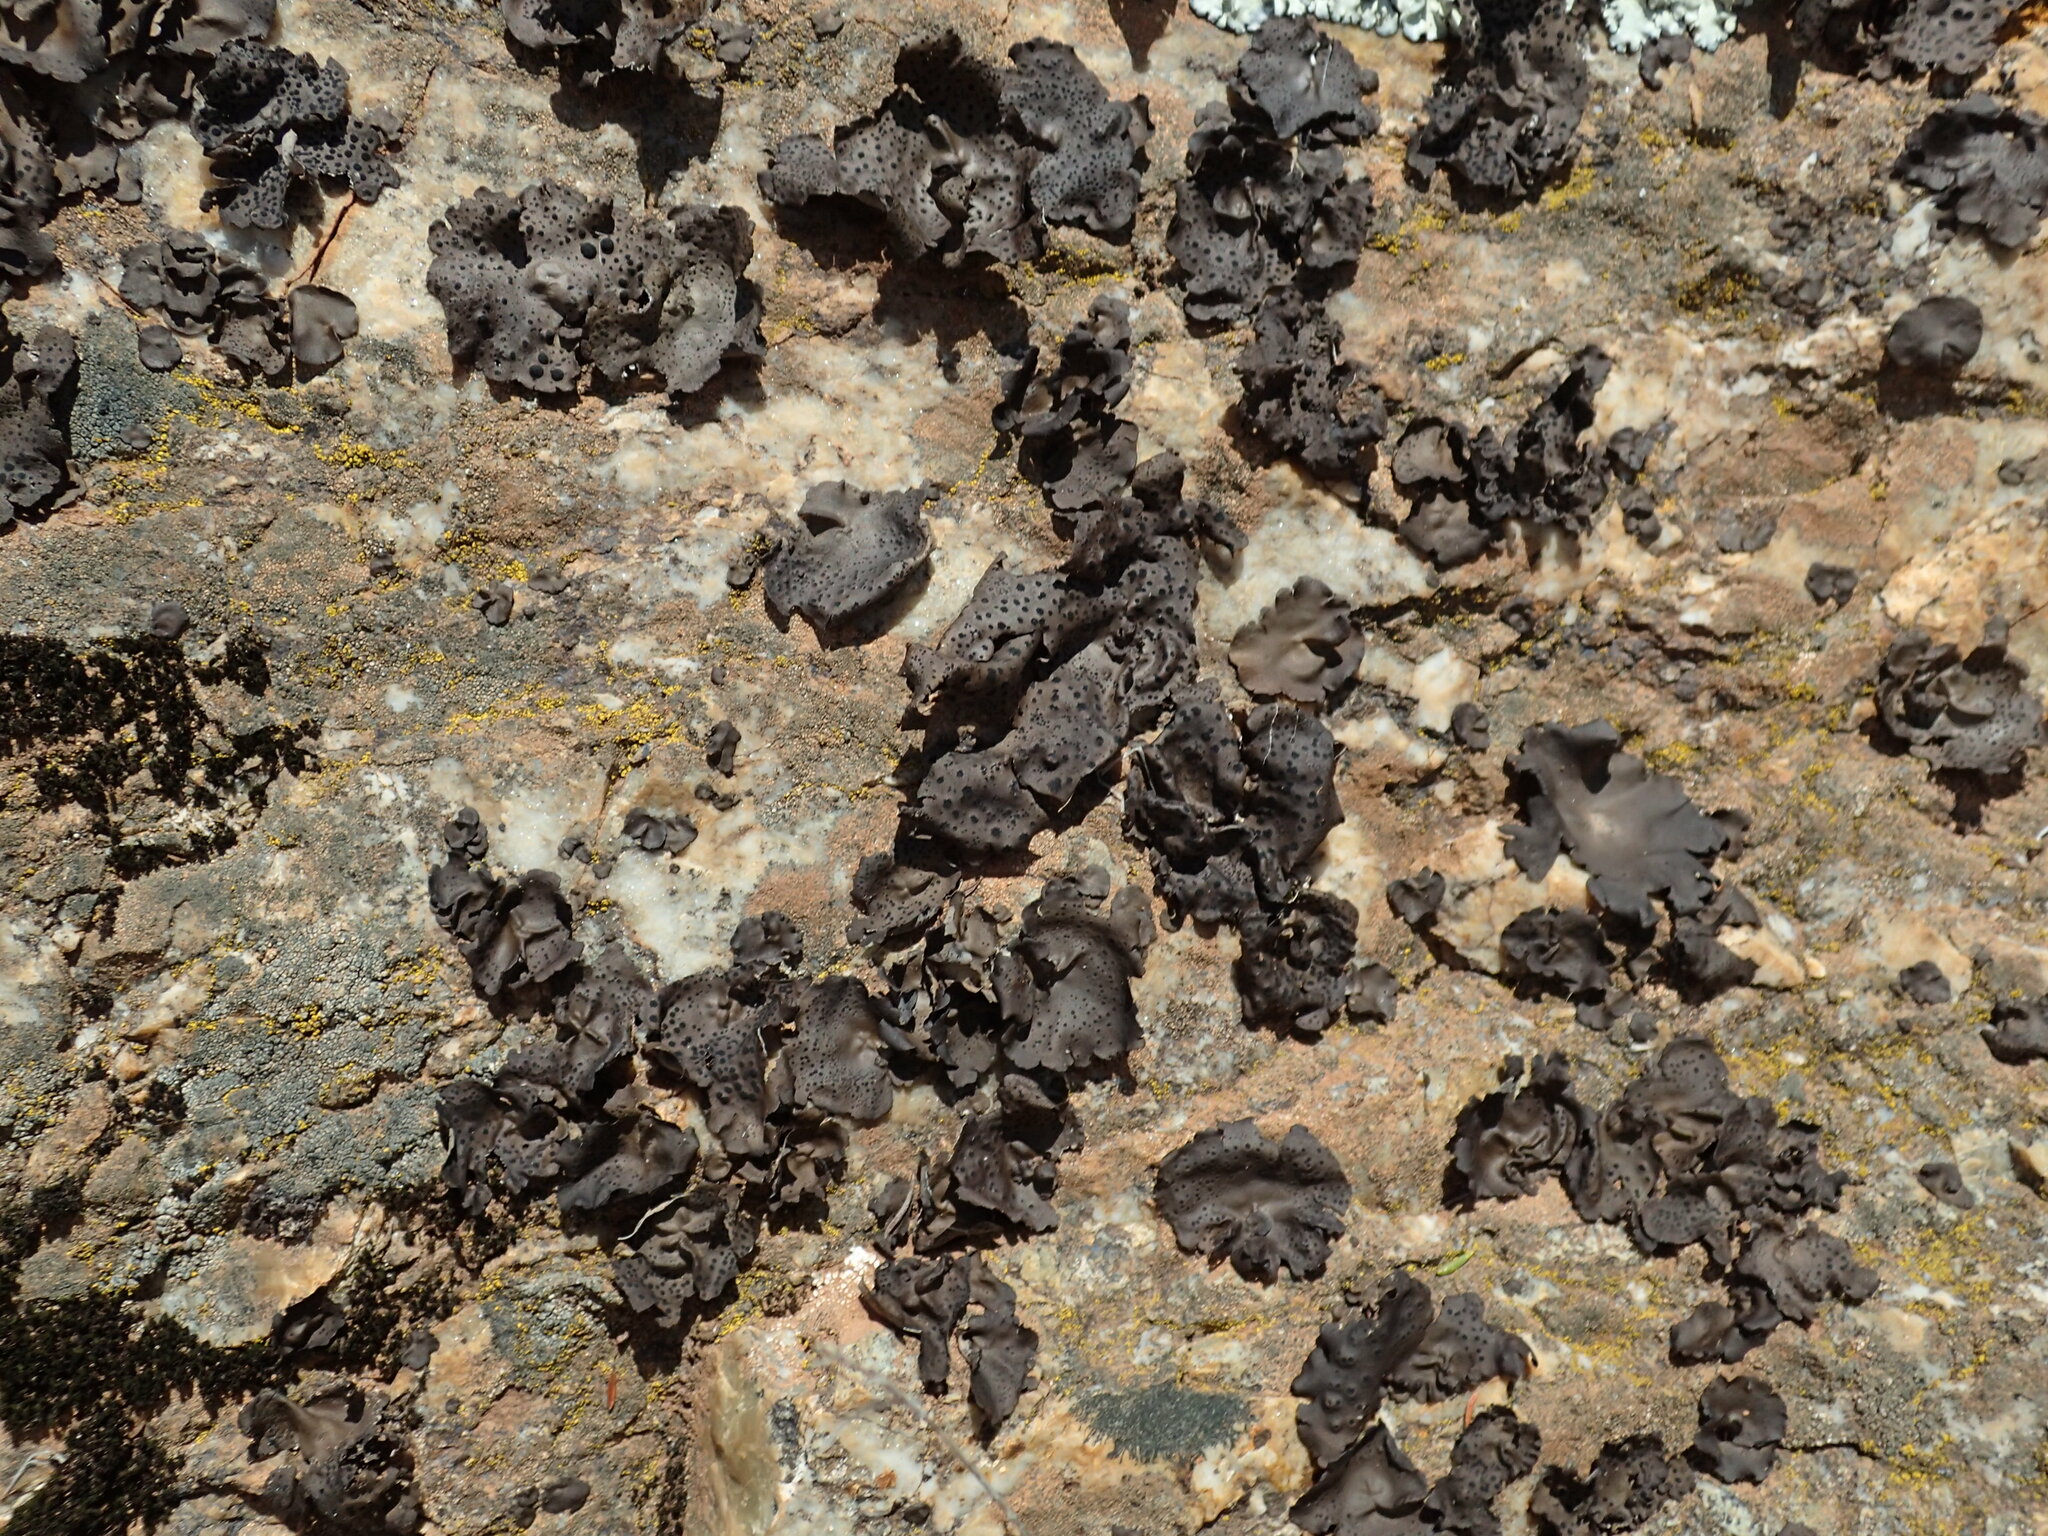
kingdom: Fungi
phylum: Ascomycota
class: Lecanoromycetes
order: Umbilicariales
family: Umbilicariaceae
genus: Umbilicaria
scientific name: Umbilicaria phaea
